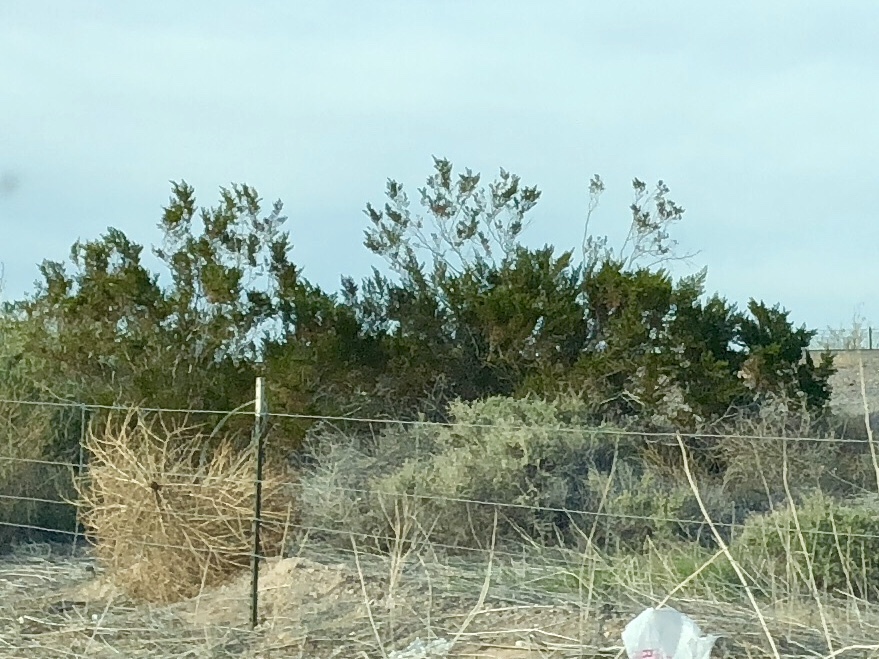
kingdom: Plantae
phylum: Tracheophyta
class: Magnoliopsida
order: Zygophyllales
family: Zygophyllaceae
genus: Larrea
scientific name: Larrea tridentata
